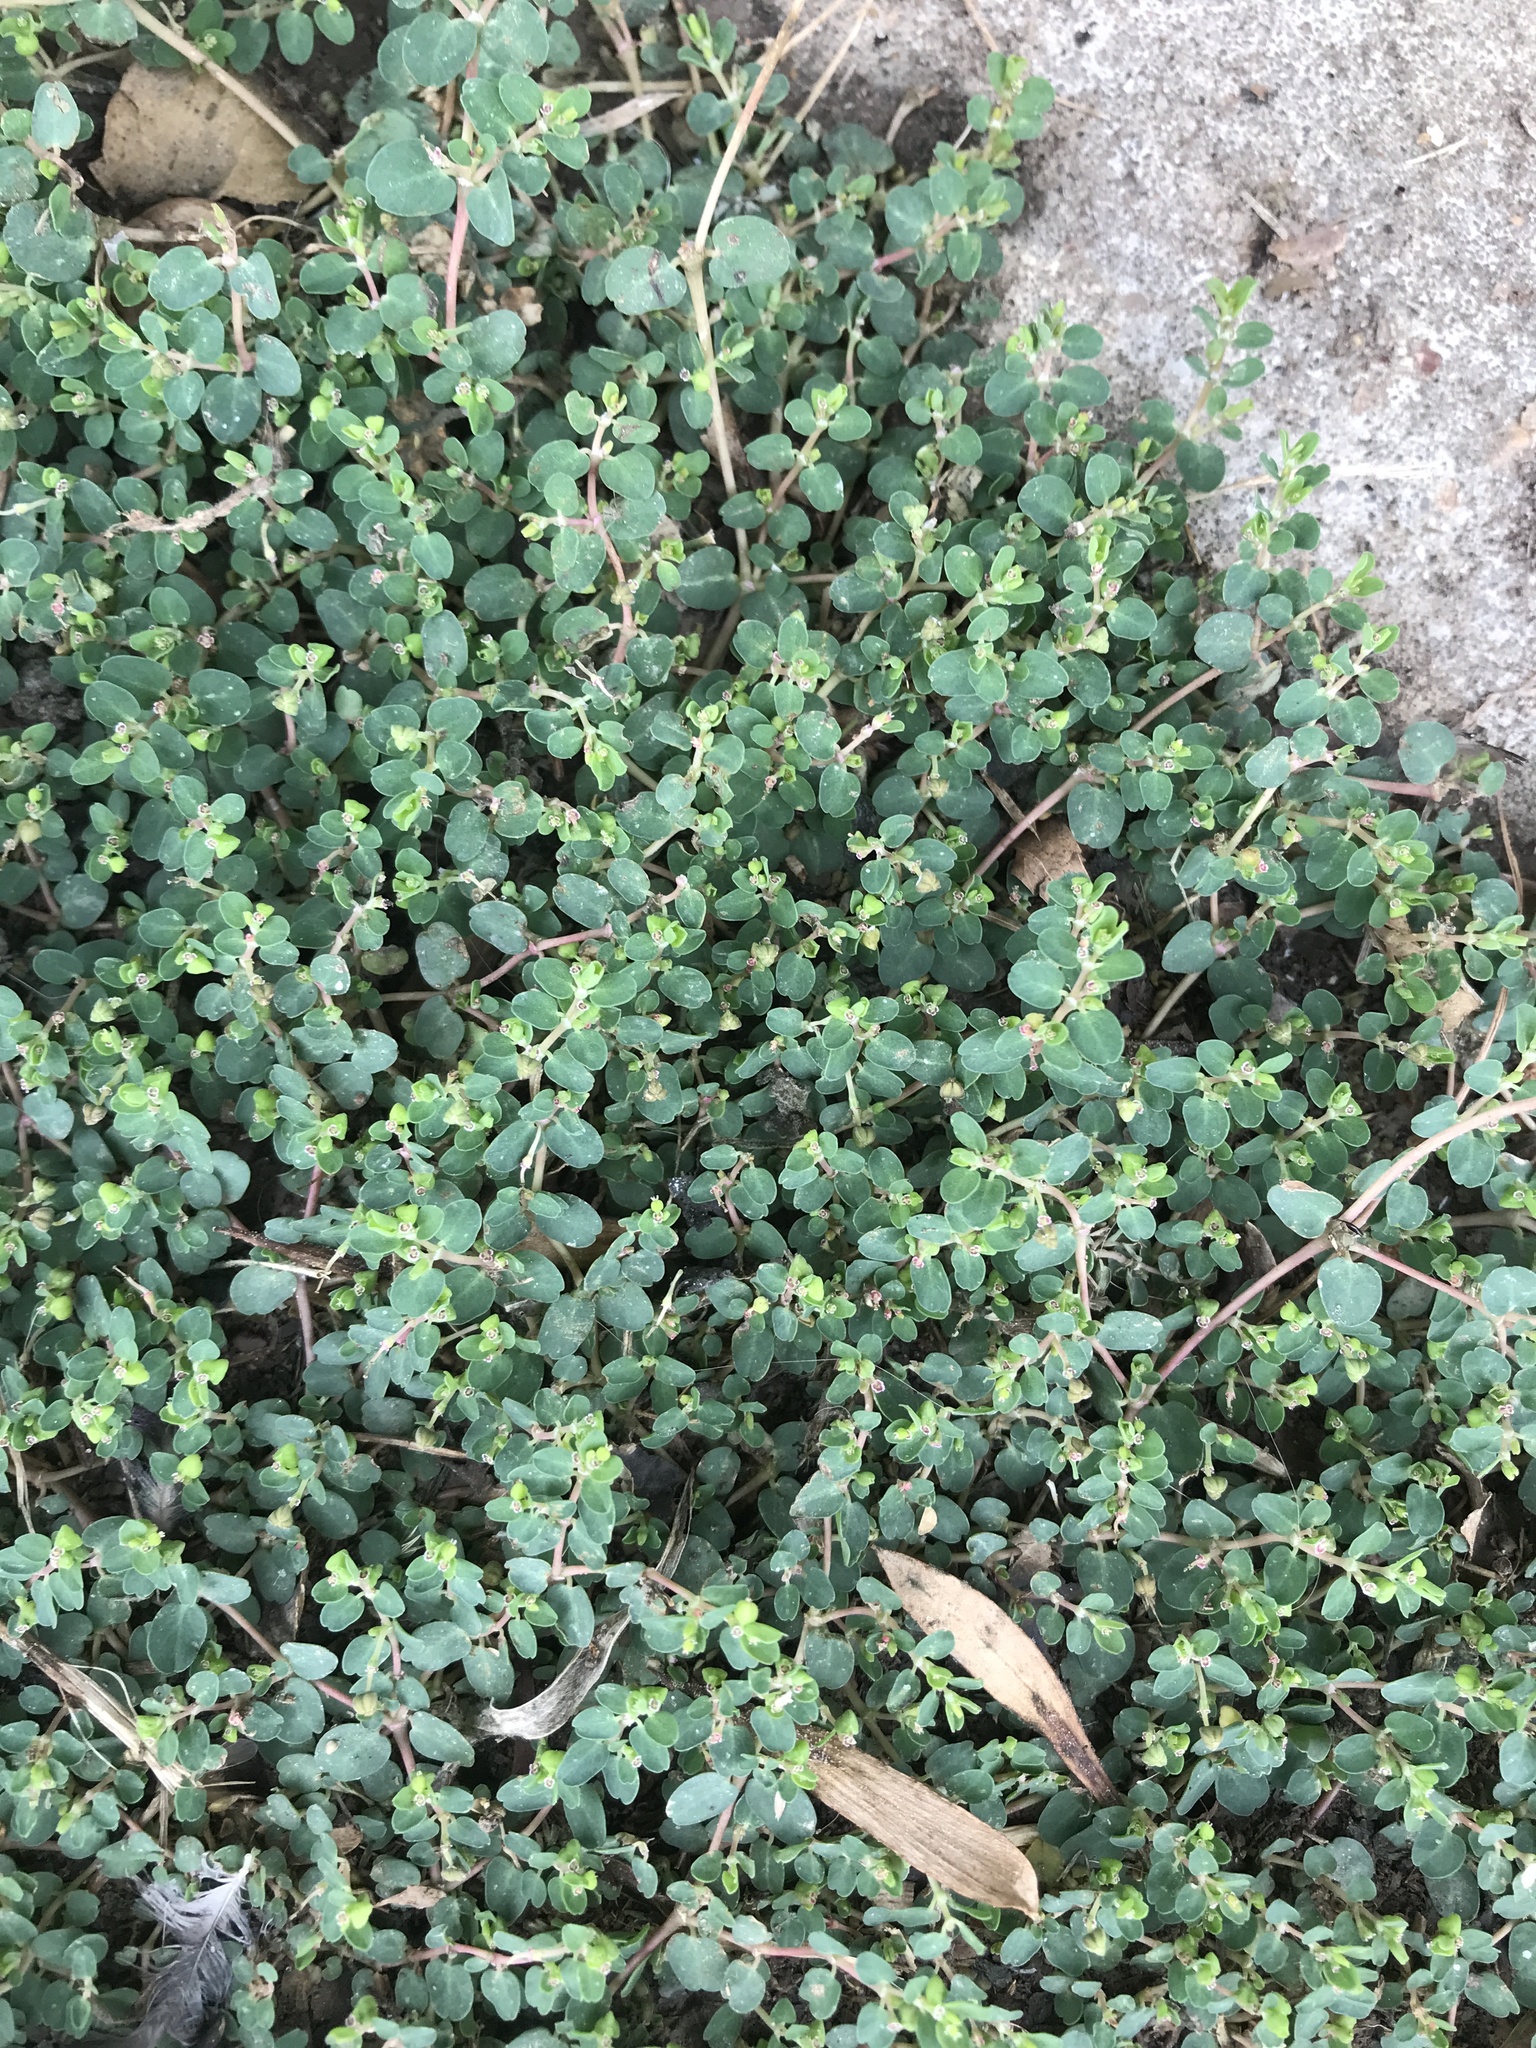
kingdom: Plantae
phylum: Tracheophyta
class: Magnoliopsida
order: Malpighiales
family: Euphorbiaceae
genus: Euphorbia
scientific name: Euphorbia serpens
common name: Matted sandmat
